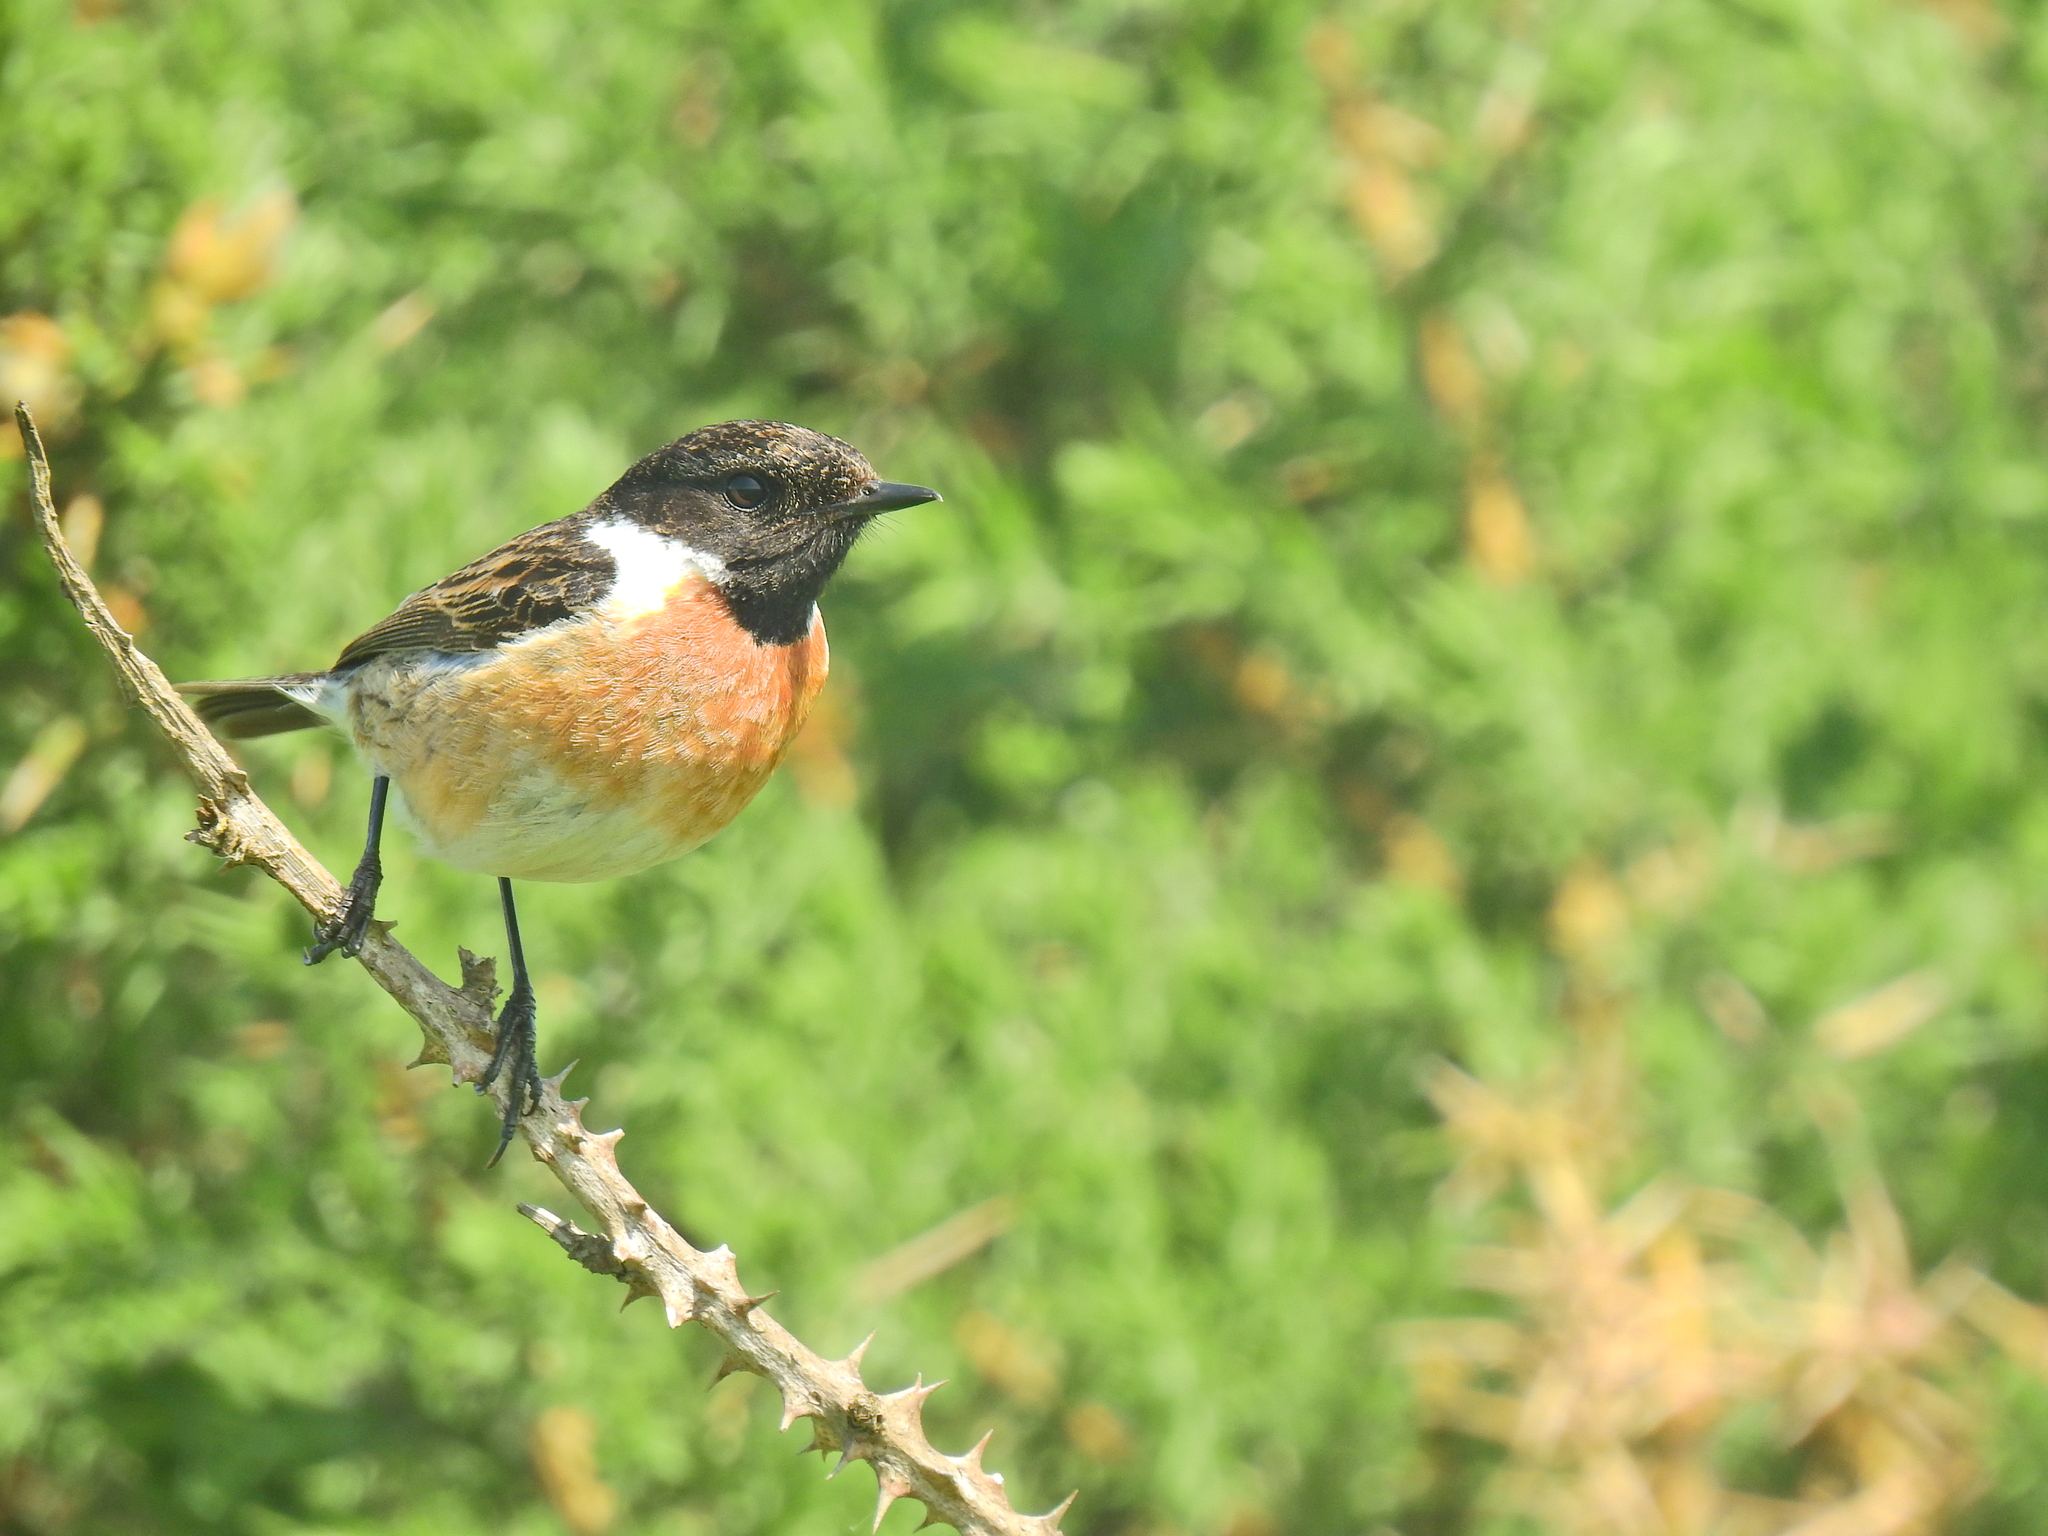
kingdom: Animalia
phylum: Chordata
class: Aves
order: Passeriformes
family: Muscicapidae
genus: Saxicola
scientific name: Saxicola rubicola
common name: European stonechat
